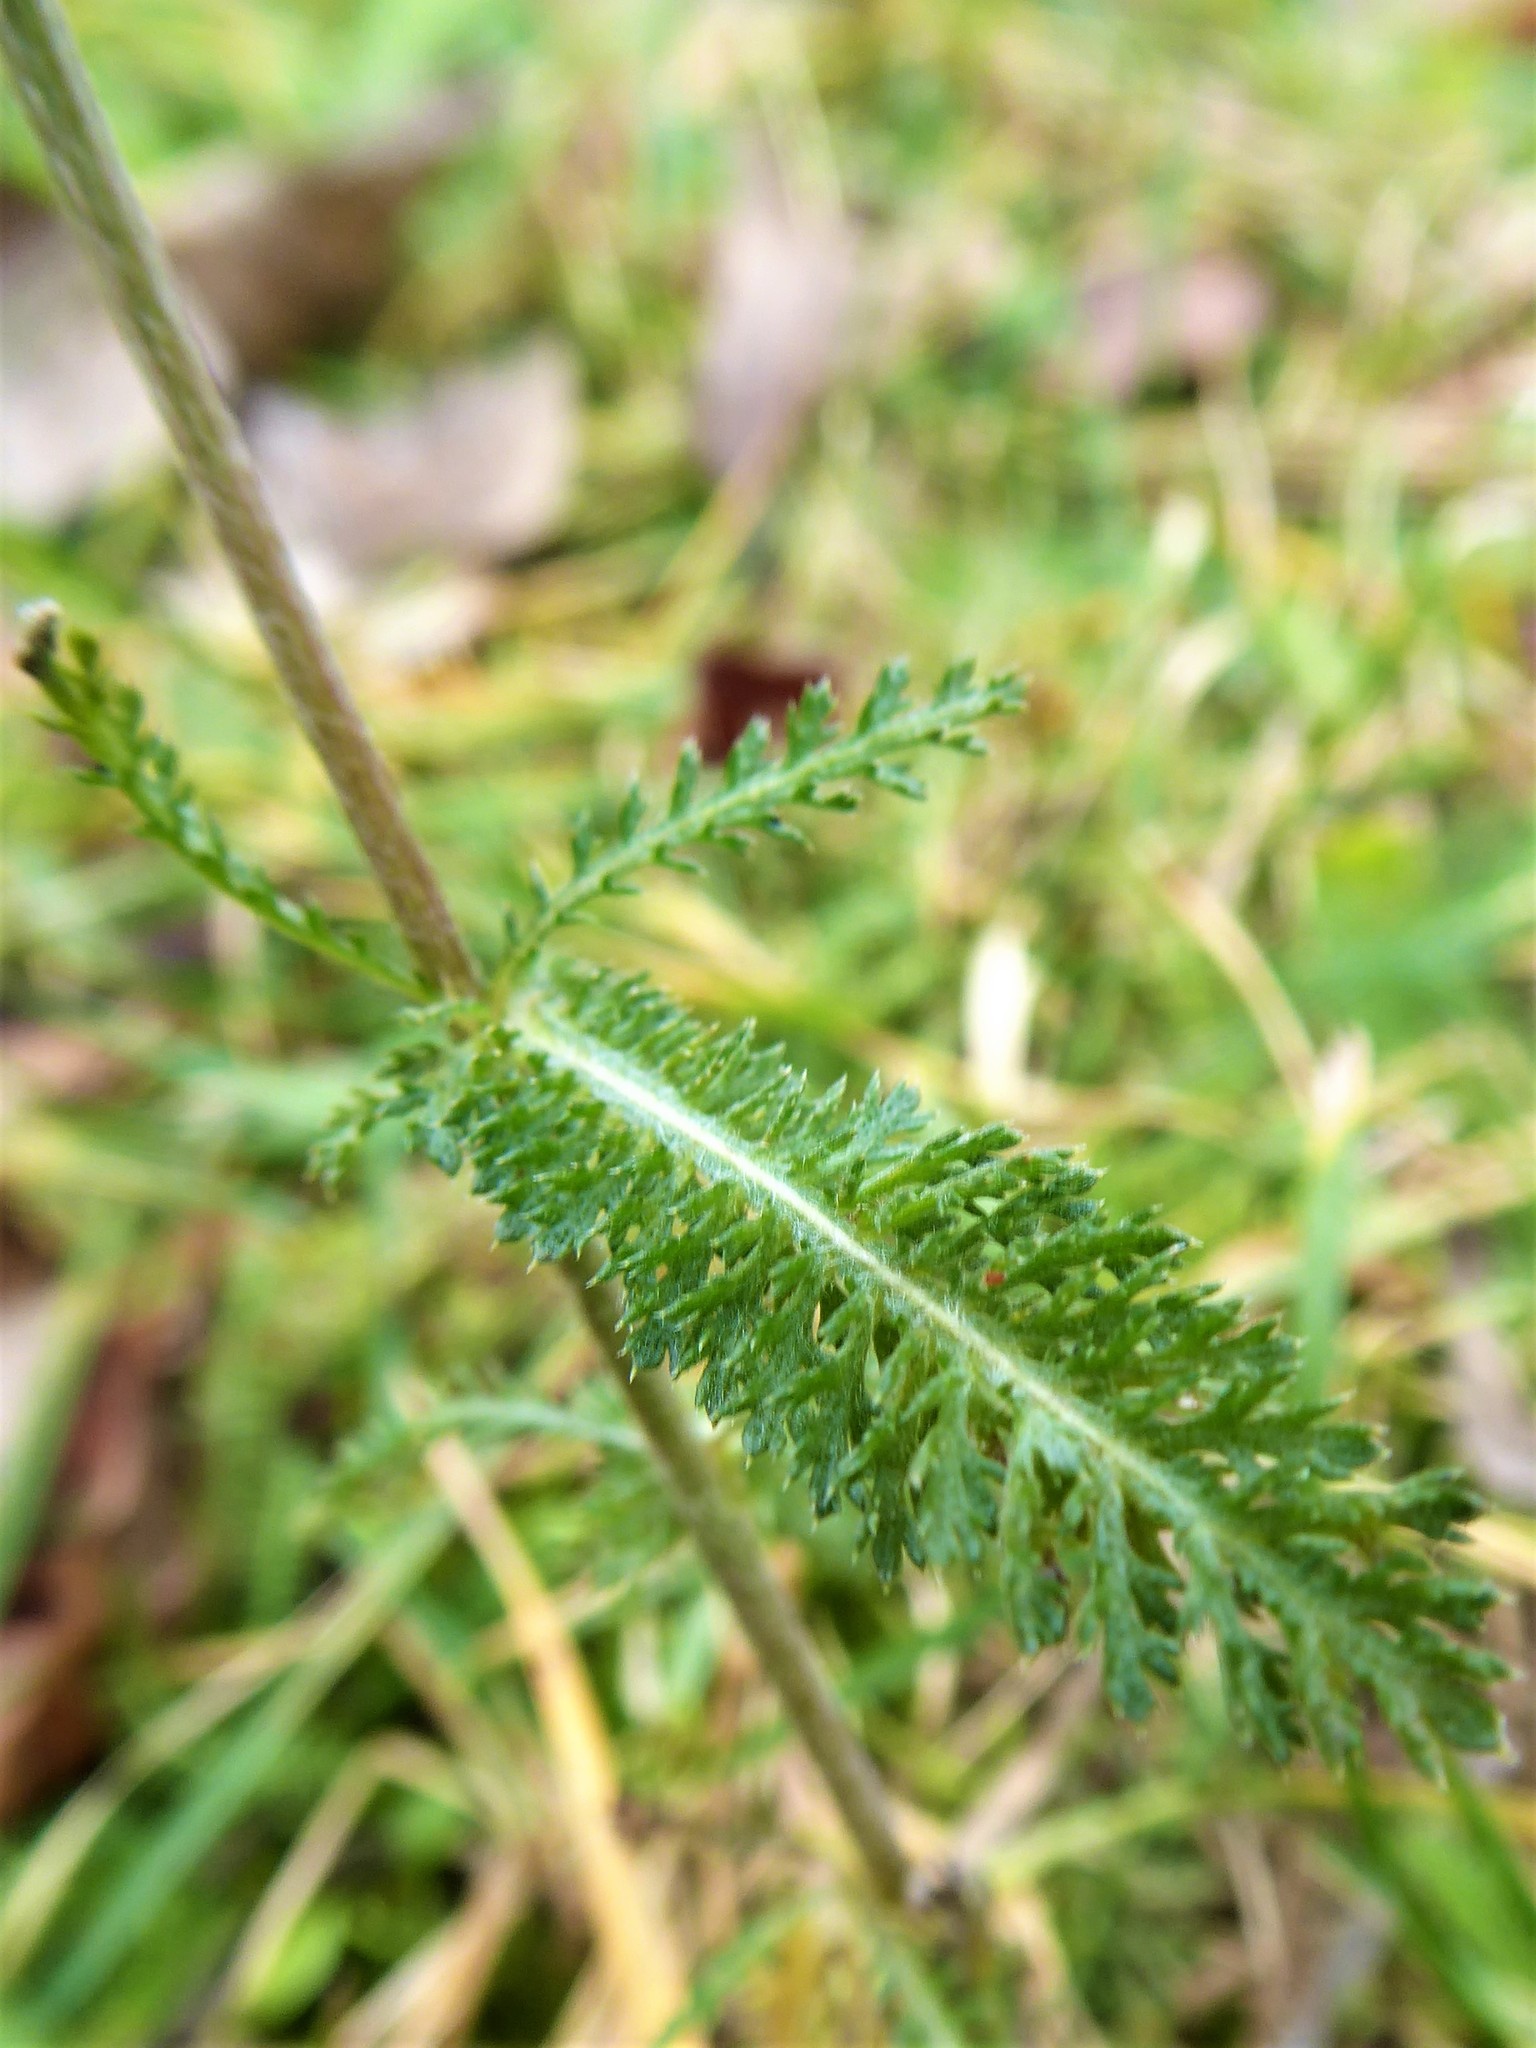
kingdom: Plantae
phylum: Tracheophyta
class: Magnoliopsida
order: Asterales
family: Asteraceae
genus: Achillea
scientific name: Achillea collina
